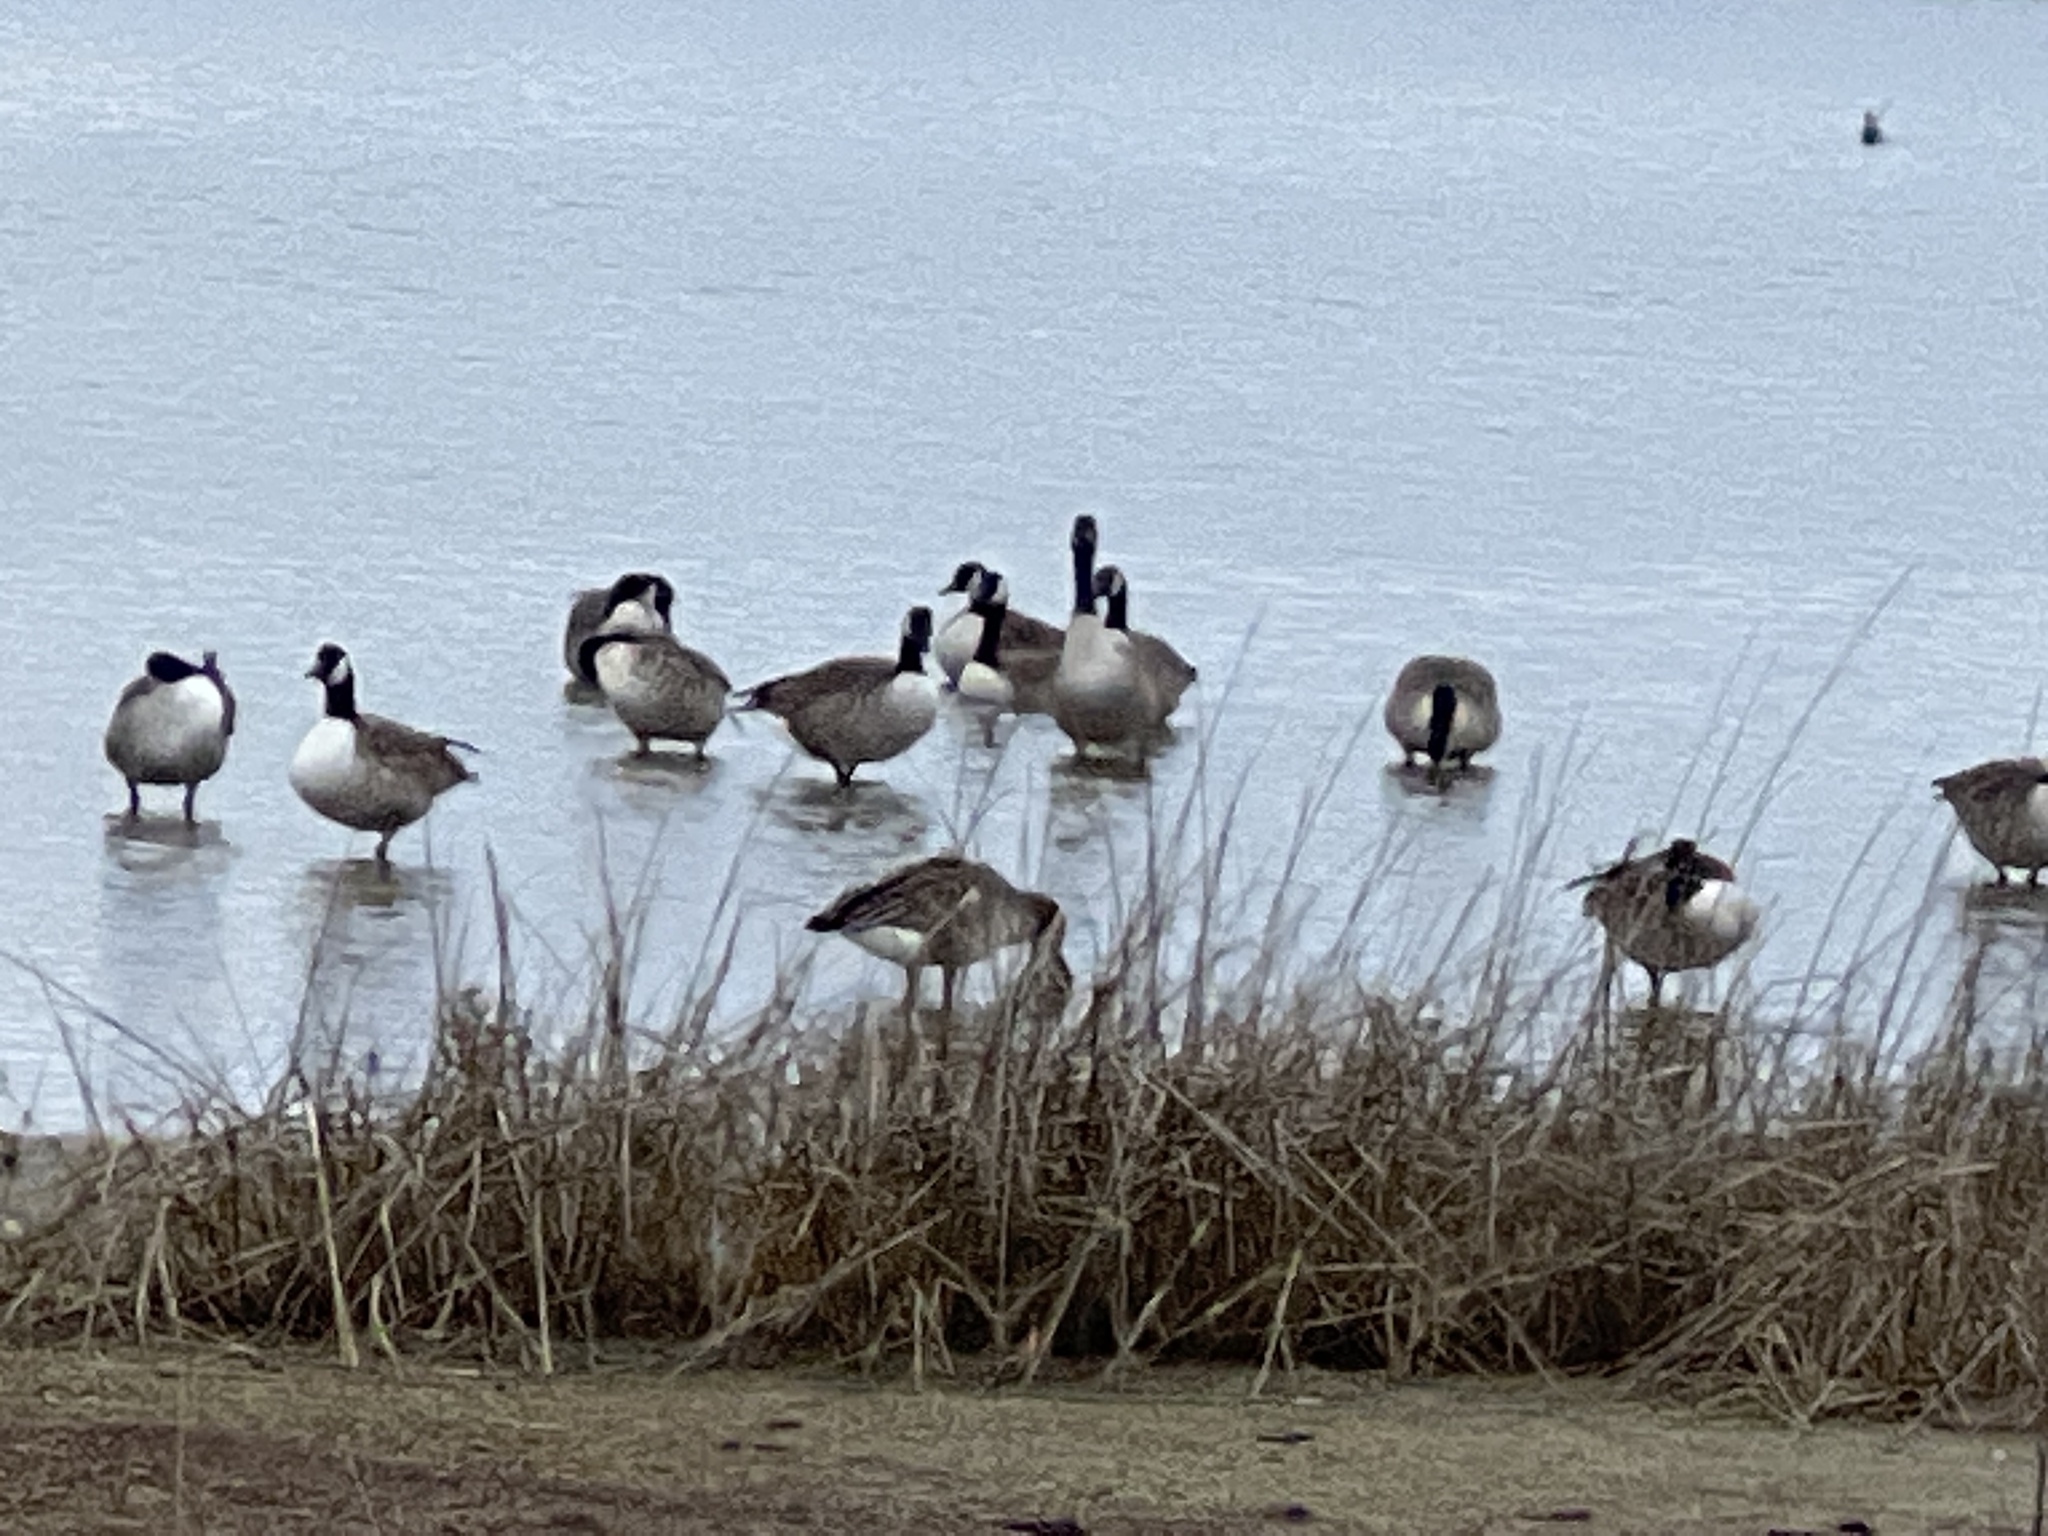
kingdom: Animalia
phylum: Chordata
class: Aves
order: Anseriformes
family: Anatidae
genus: Branta
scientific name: Branta canadensis
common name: Canada goose
